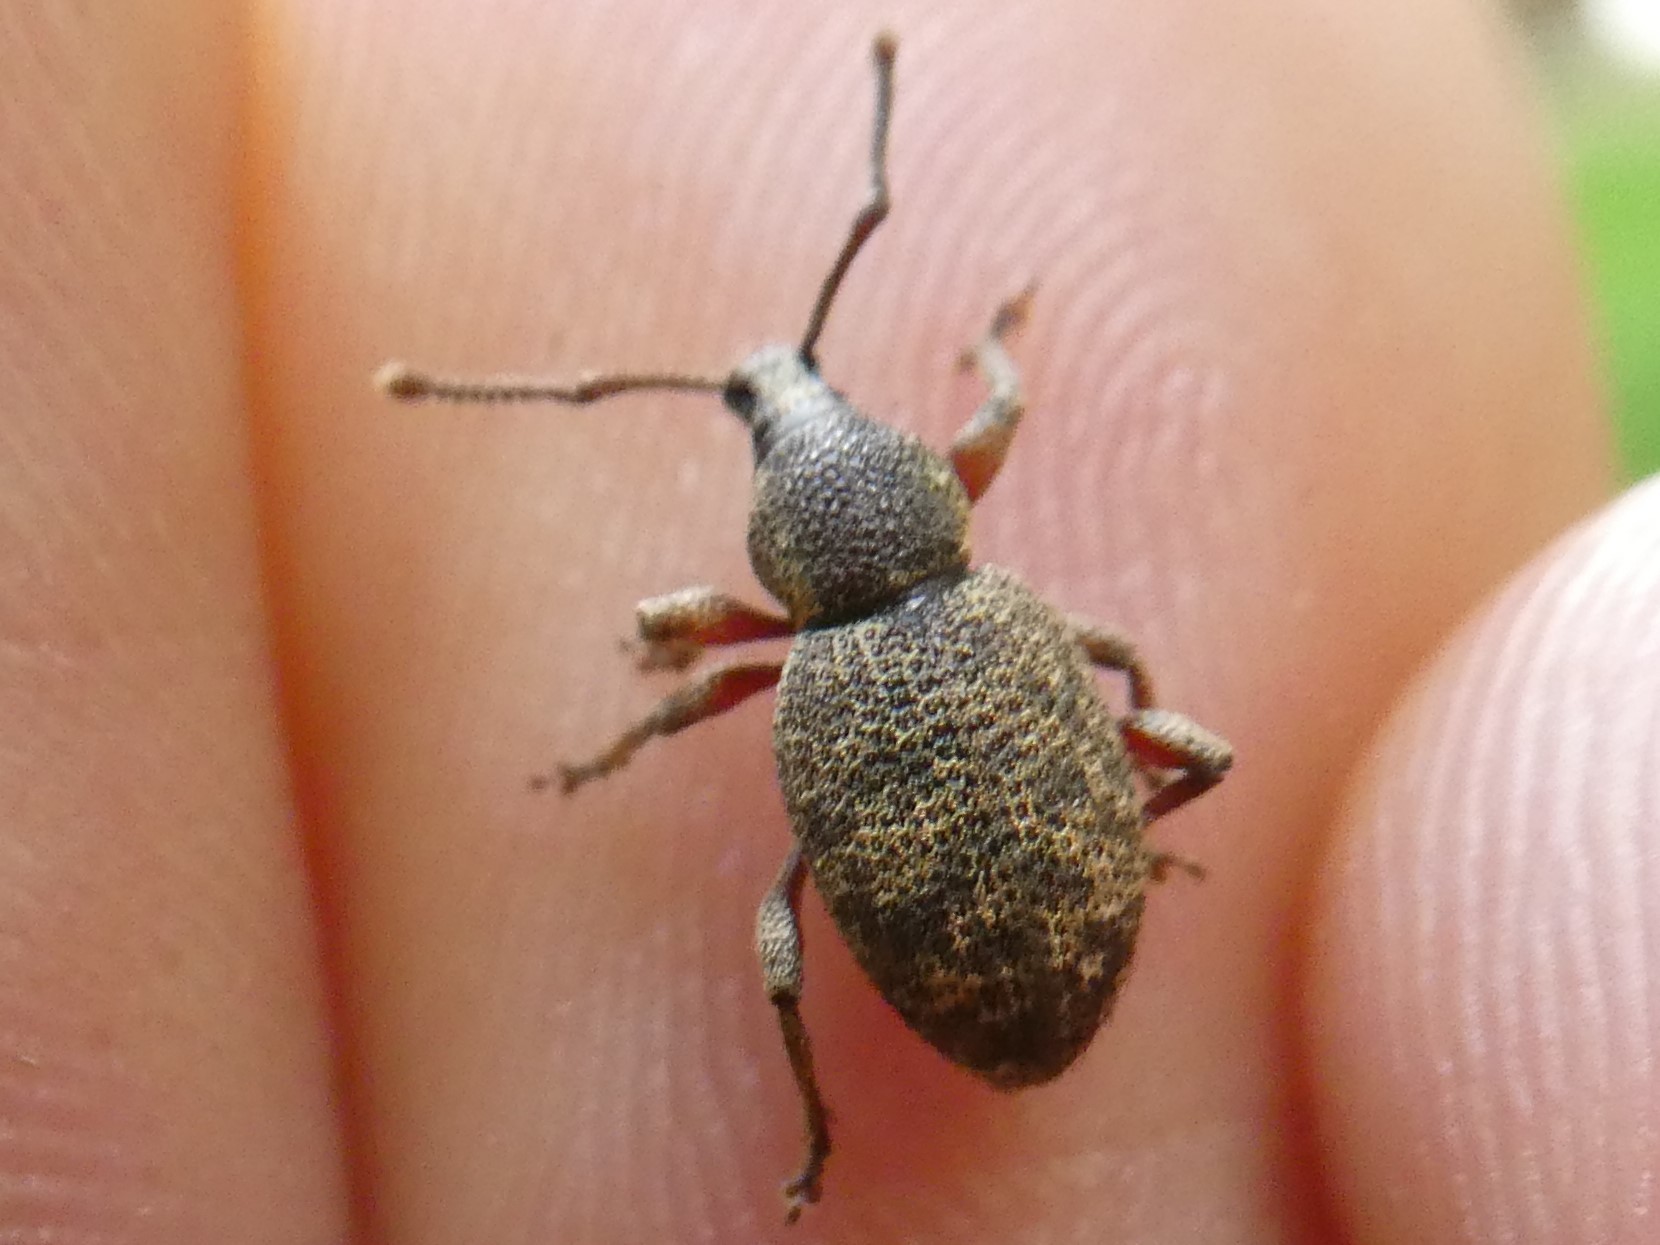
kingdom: Animalia
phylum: Arthropoda
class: Insecta
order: Coleoptera
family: Curculionidae
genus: Otiorhynchus
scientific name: Otiorhynchus singularis
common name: Clay-coloured weevil
